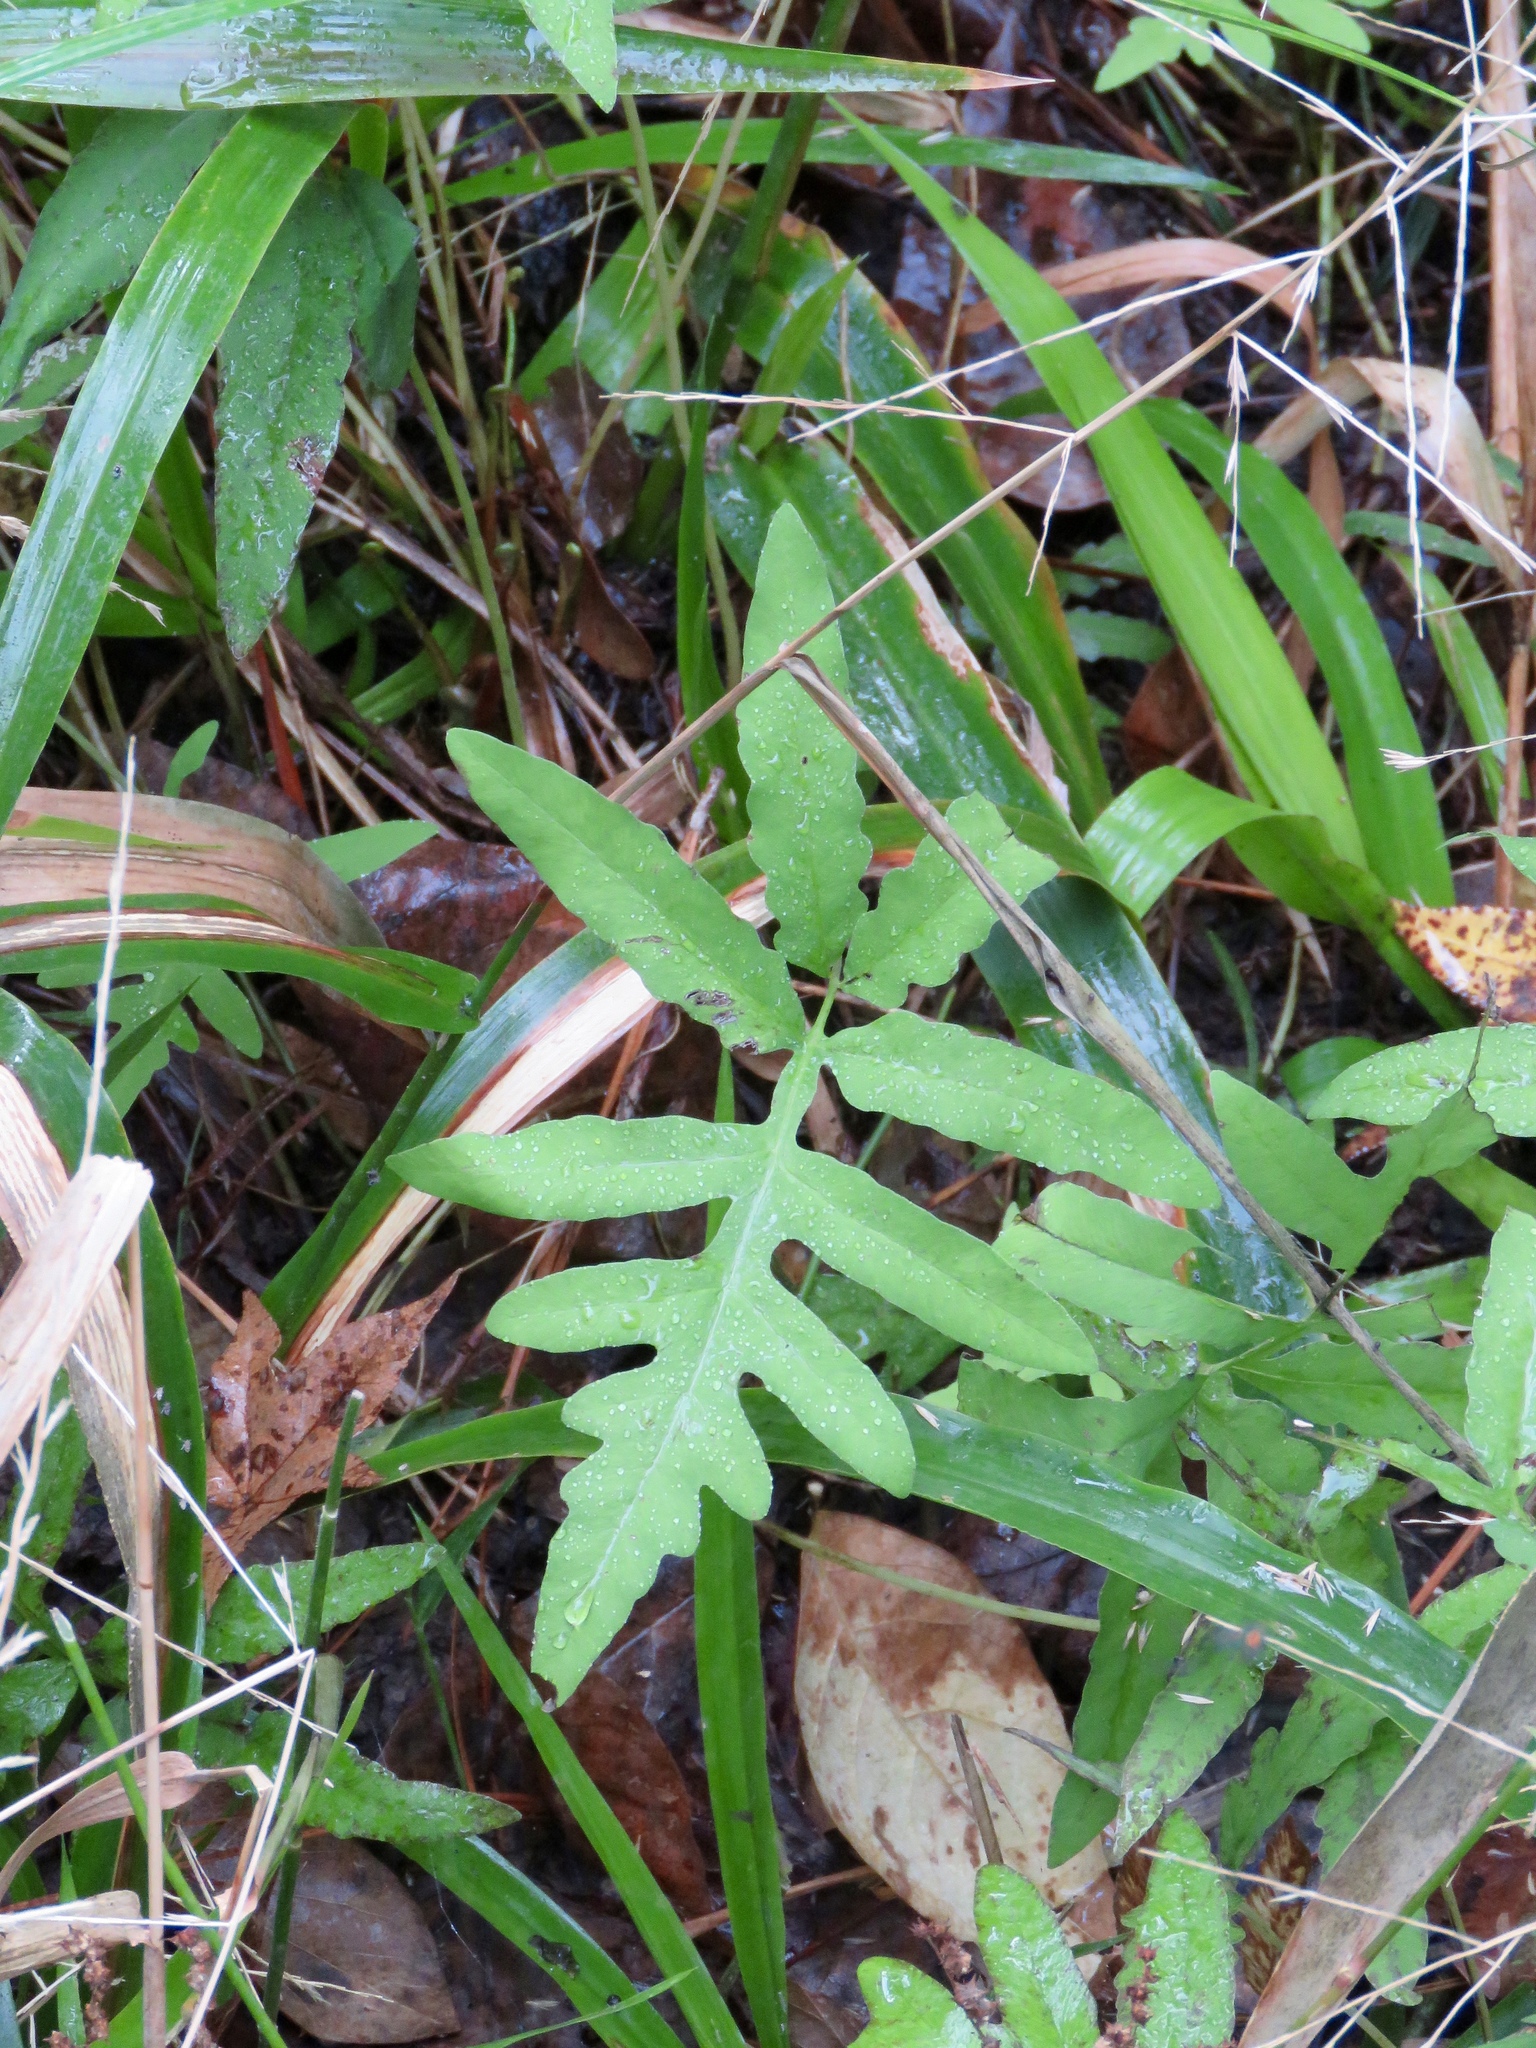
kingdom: Plantae
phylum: Tracheophyta
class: Polypodiopsida
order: Polypodiales
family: Onocleaceae
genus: Onoclea
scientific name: Onoclea sensibilis
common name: Sensitive fern
